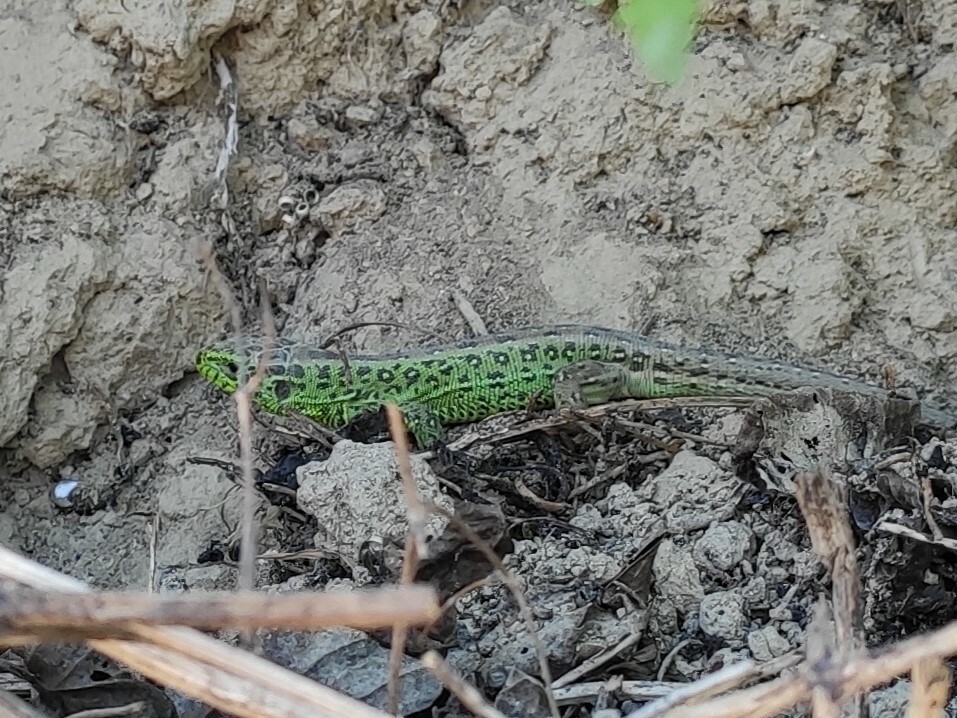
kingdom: Animalia
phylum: Chordata
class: Squamata
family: Lacertidae
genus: Lacerta
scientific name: Lacerta agilis
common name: Sand lizard
